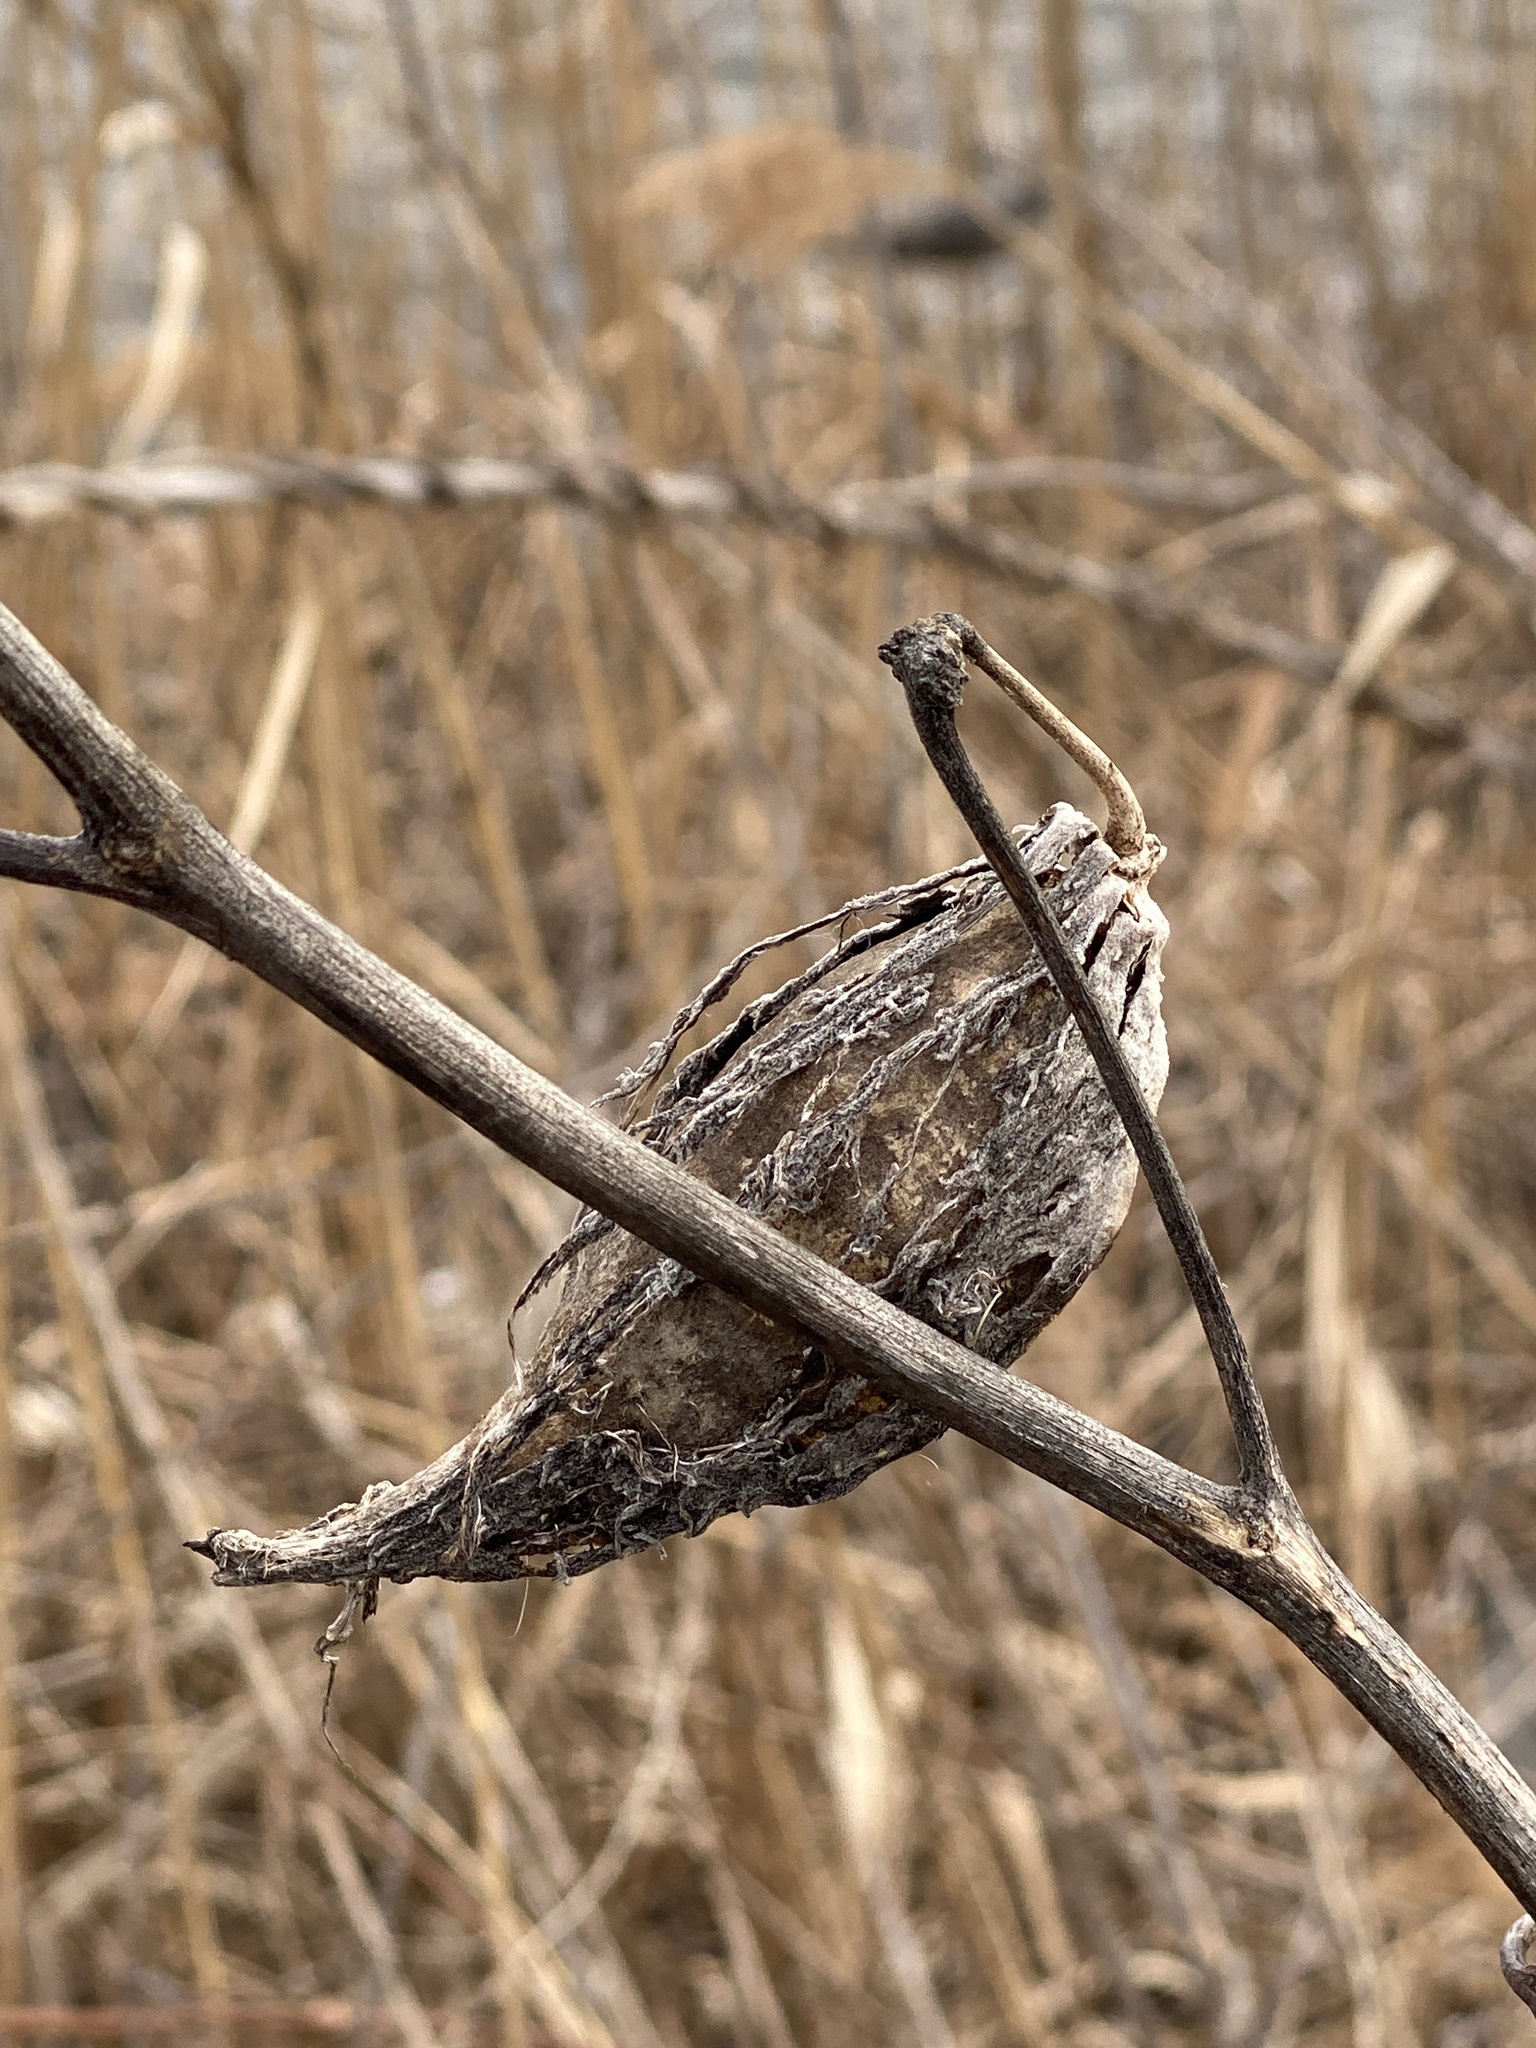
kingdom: Plantae
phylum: Tracheophyta
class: Magnoliopsida
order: Gentianales
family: Apocynaceae
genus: Asclepias
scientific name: Asclepias syriaca
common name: Common milkweed
